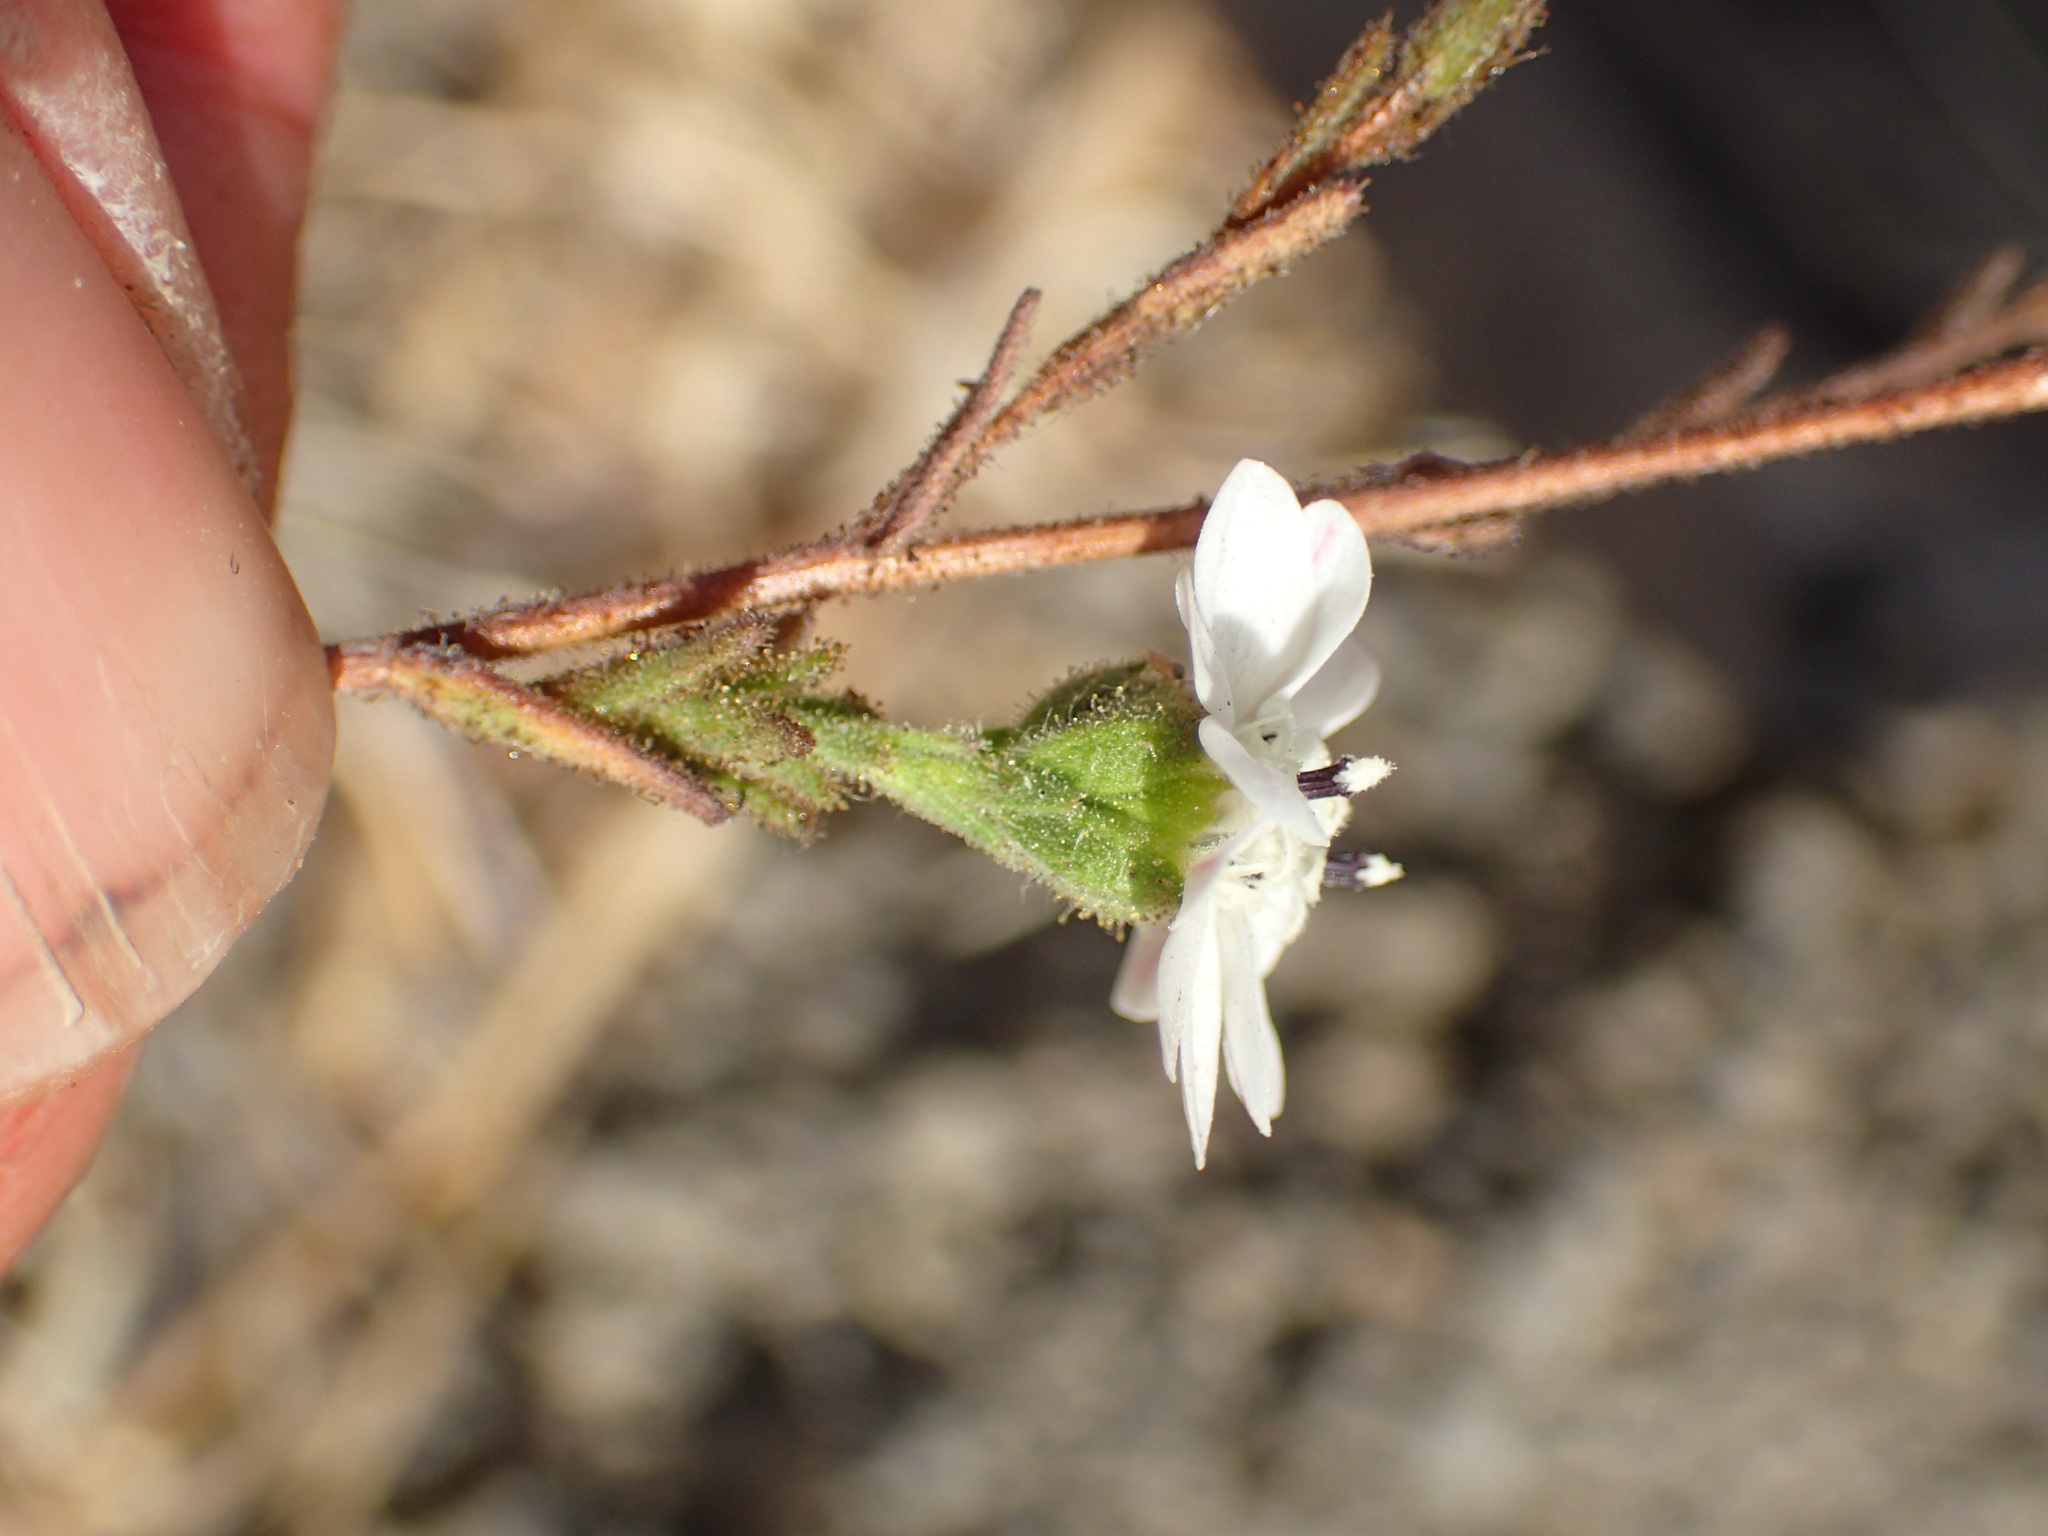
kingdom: Plantae
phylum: Tracheophyta
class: Magnoliopsida
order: Asterales
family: Asteraceae
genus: Hemizonia
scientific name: Hemizonia congesta
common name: Hayfield tarweed
